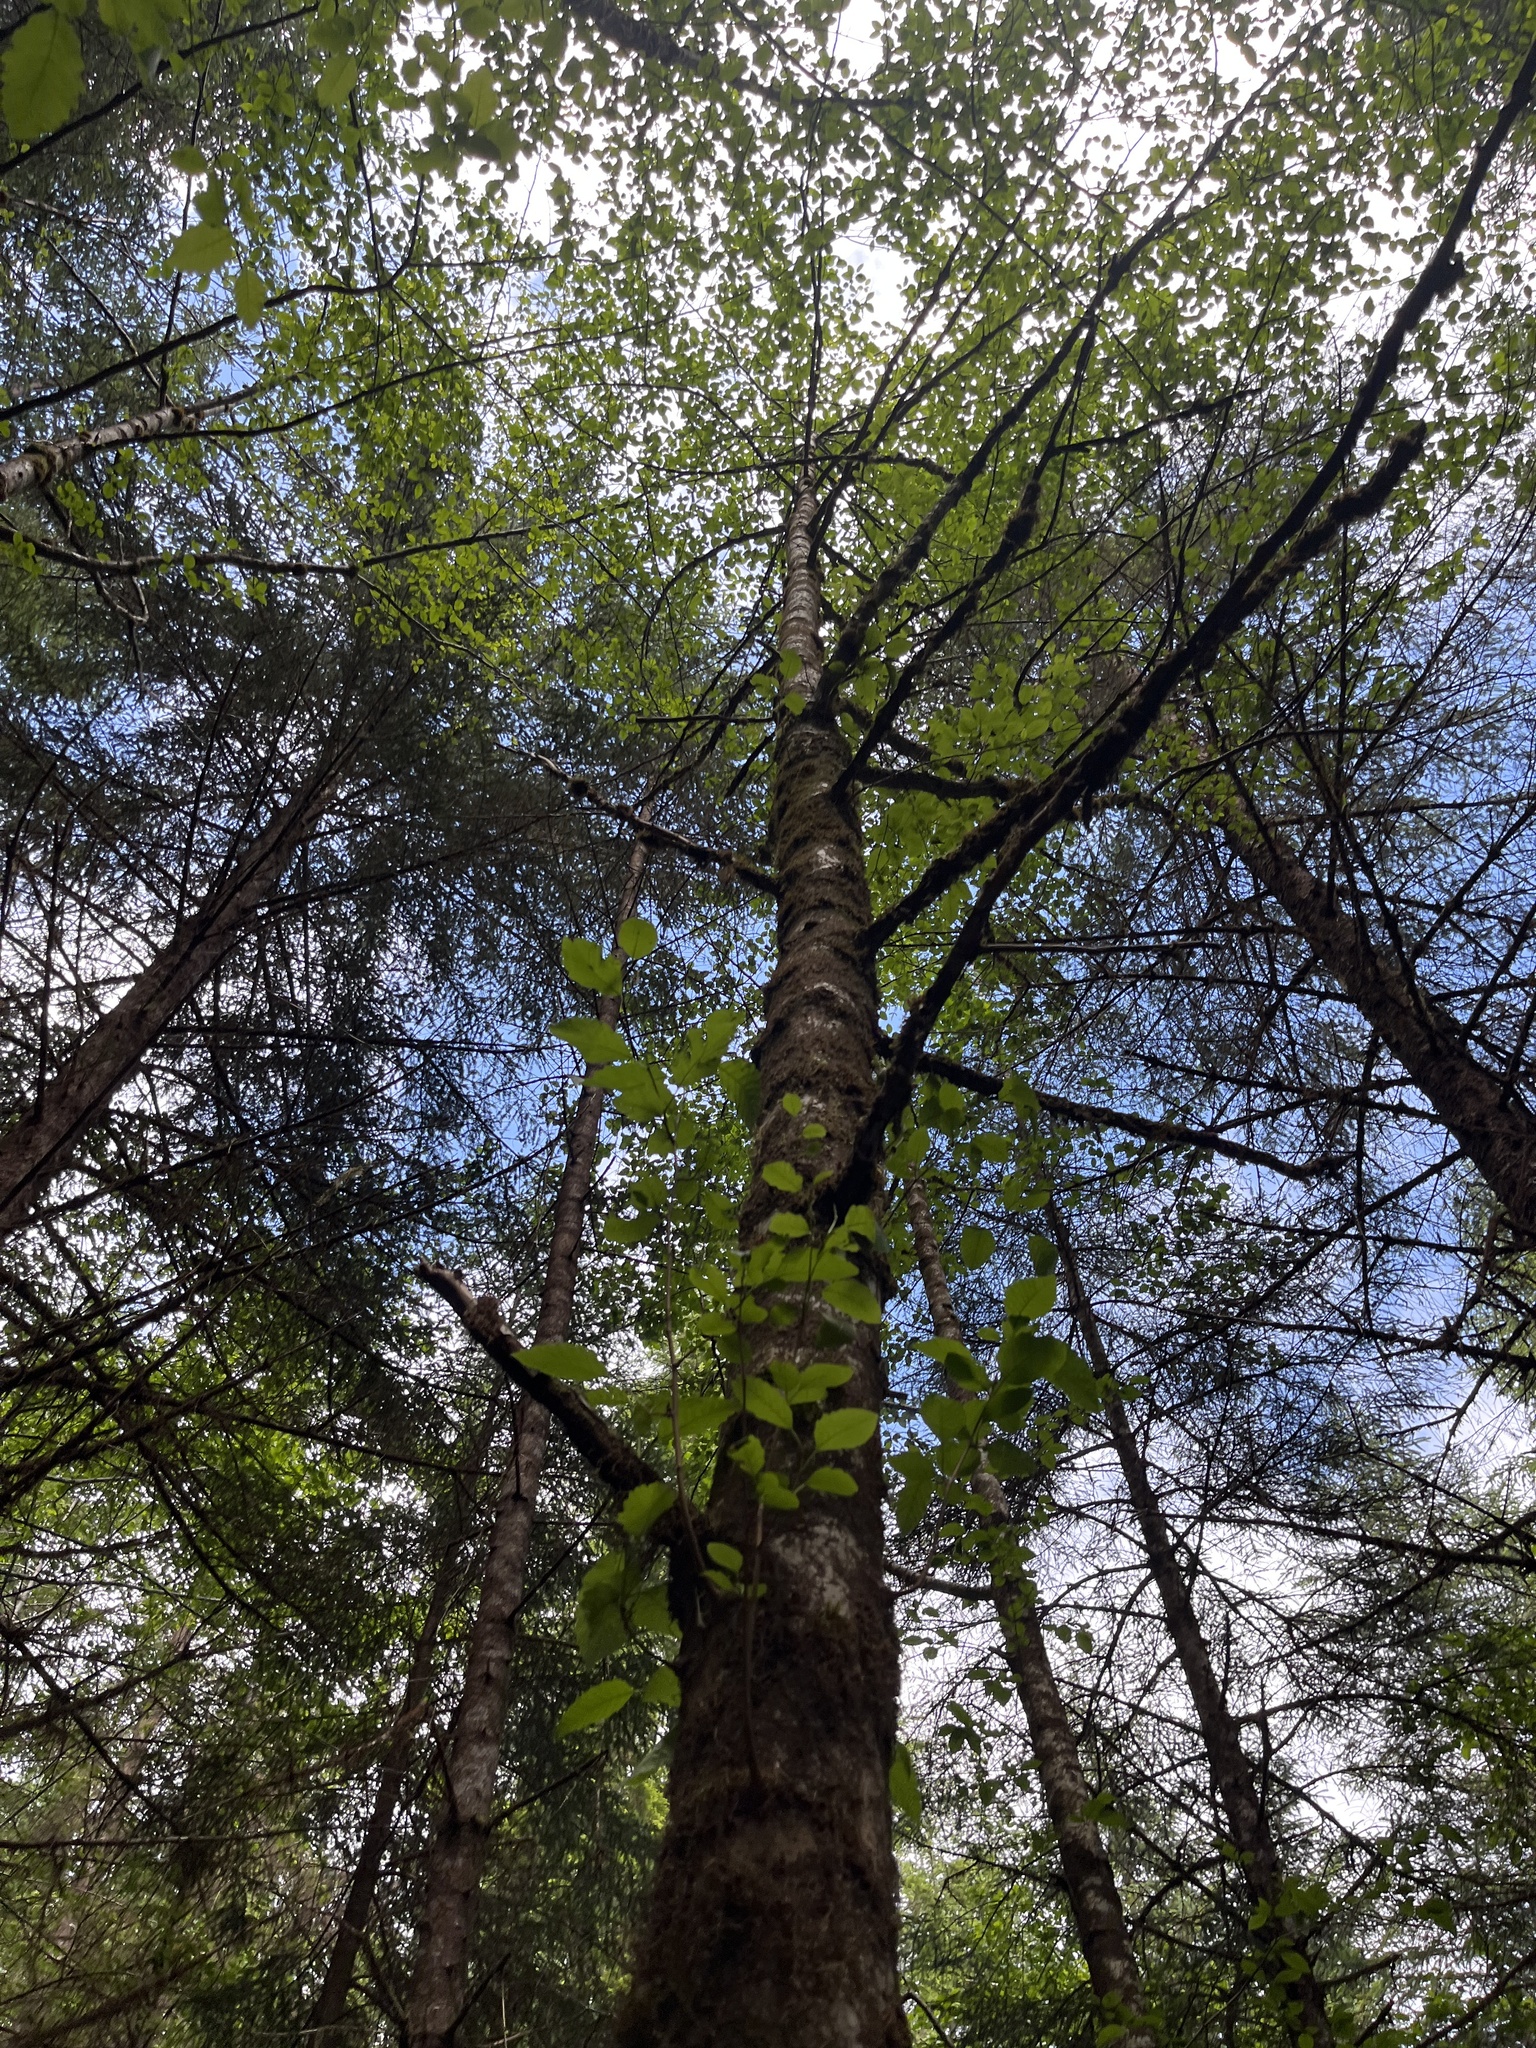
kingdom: Plantae
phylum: Tracheophyta
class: Magnoliopsida
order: Fagales
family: Betulaceae
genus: Alnus
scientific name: Alnus rubra
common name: Red alder
